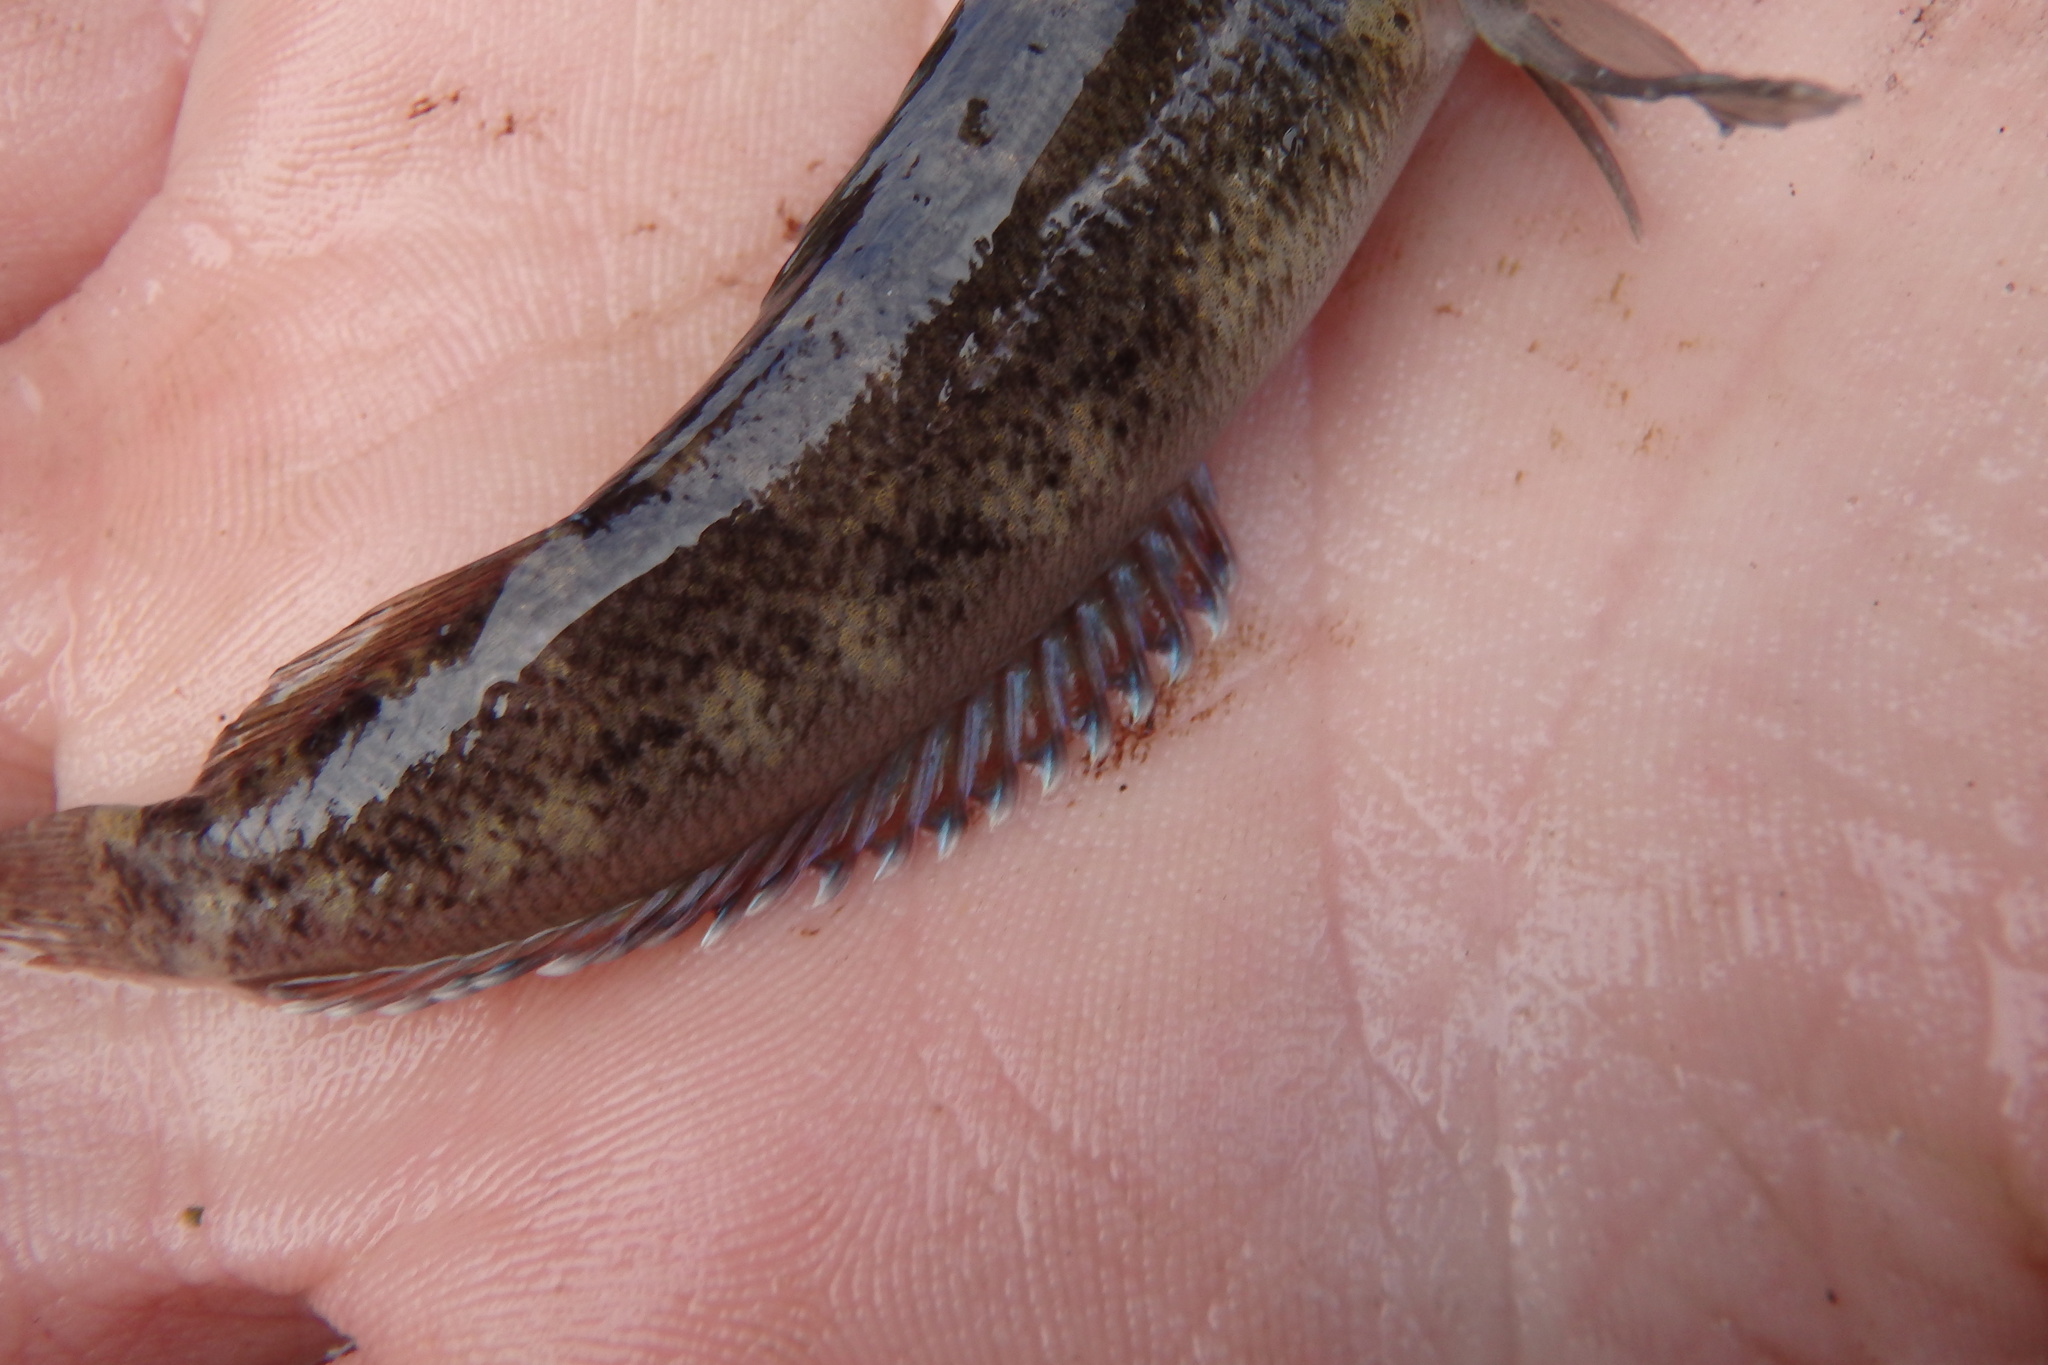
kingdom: Animalia
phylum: Chordata
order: Perciformes
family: Tripterygiidae
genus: Forsterygion
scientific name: Forsterygion capito
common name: Spotted robust triplefin
